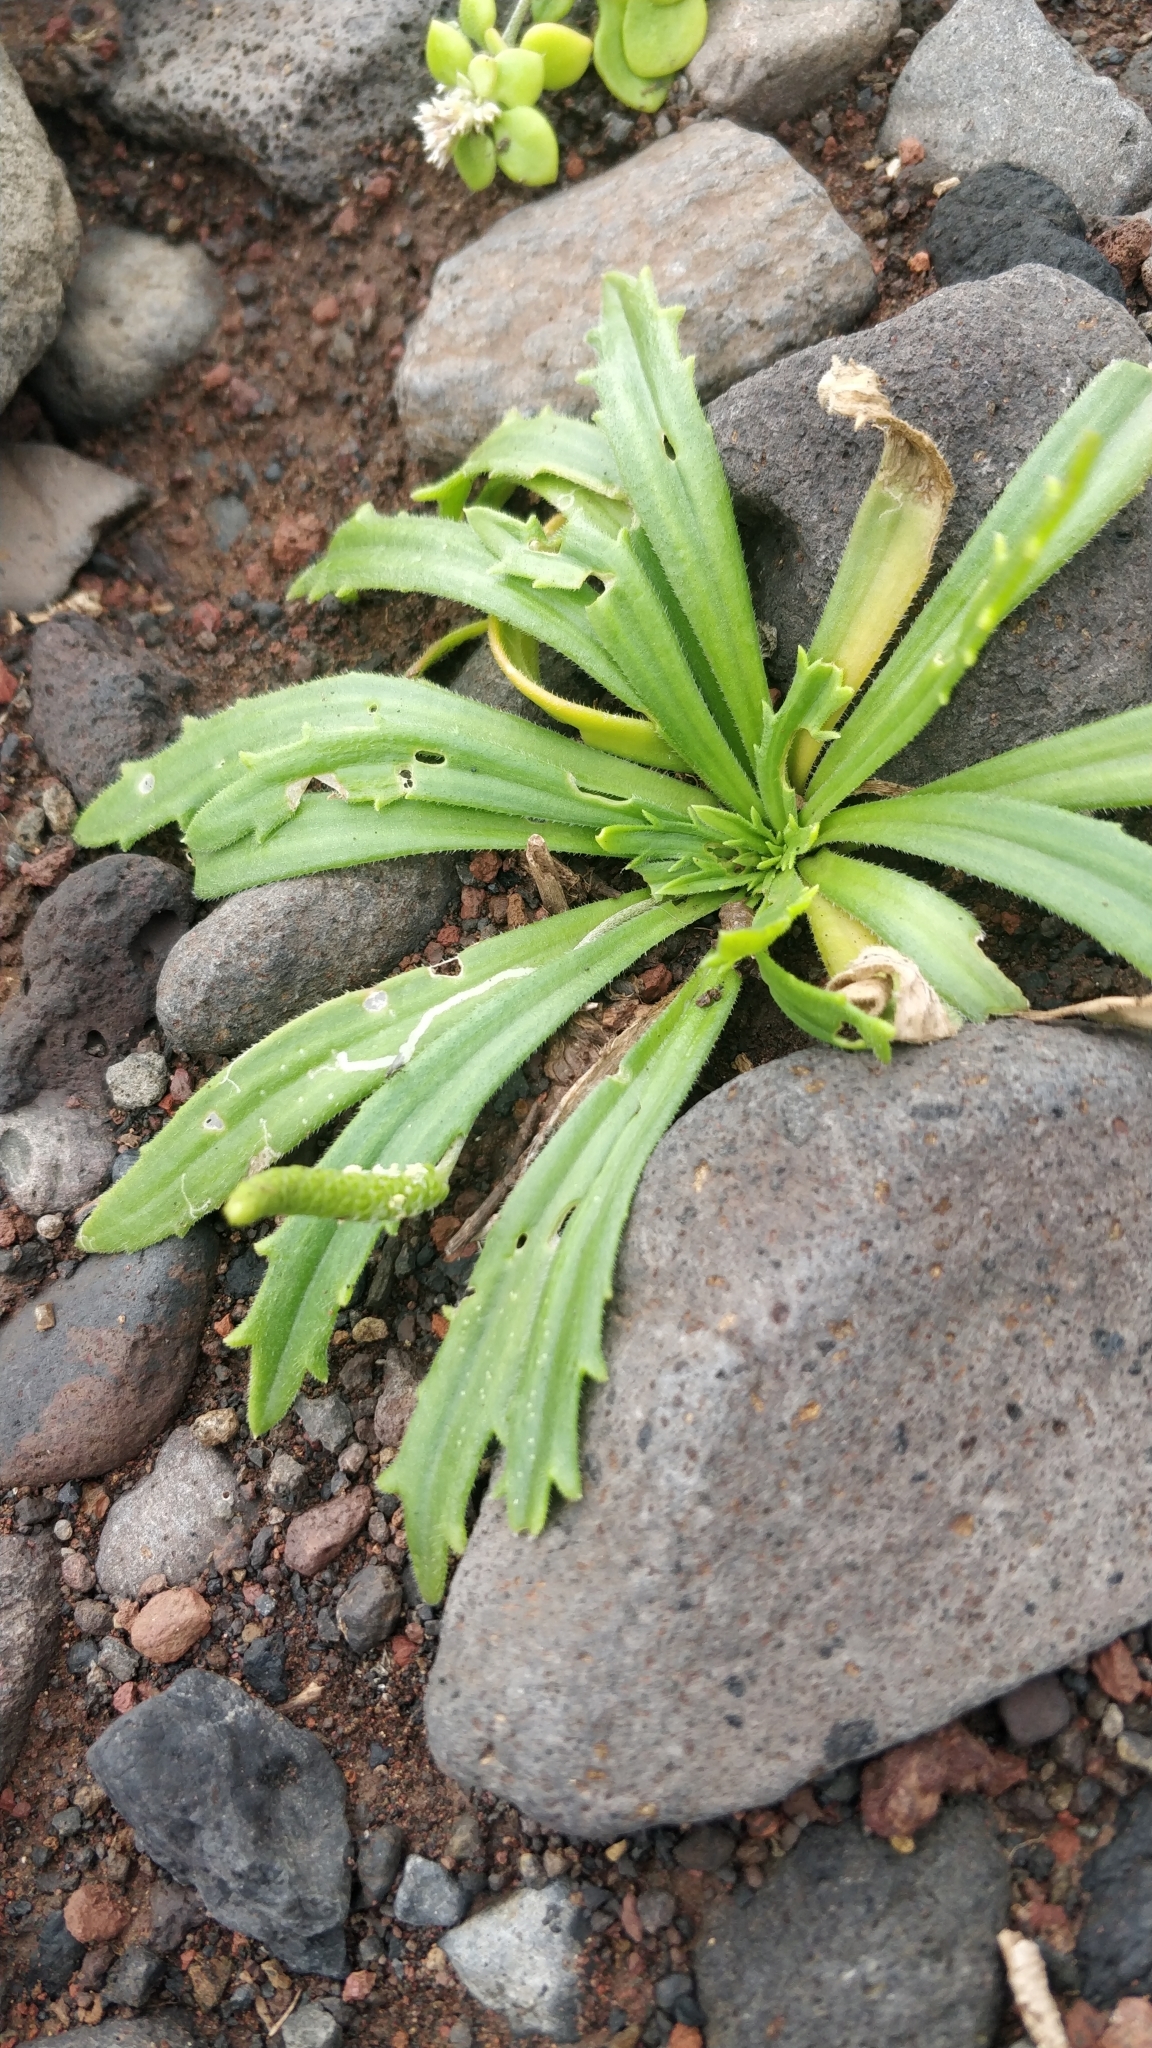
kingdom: Plantae
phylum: Tracheophyta
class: Magnoliopsida
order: Lamiales
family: Plantaginaceae
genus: Plantago
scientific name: Plantago coronopus
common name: Buck's-horn plantain
